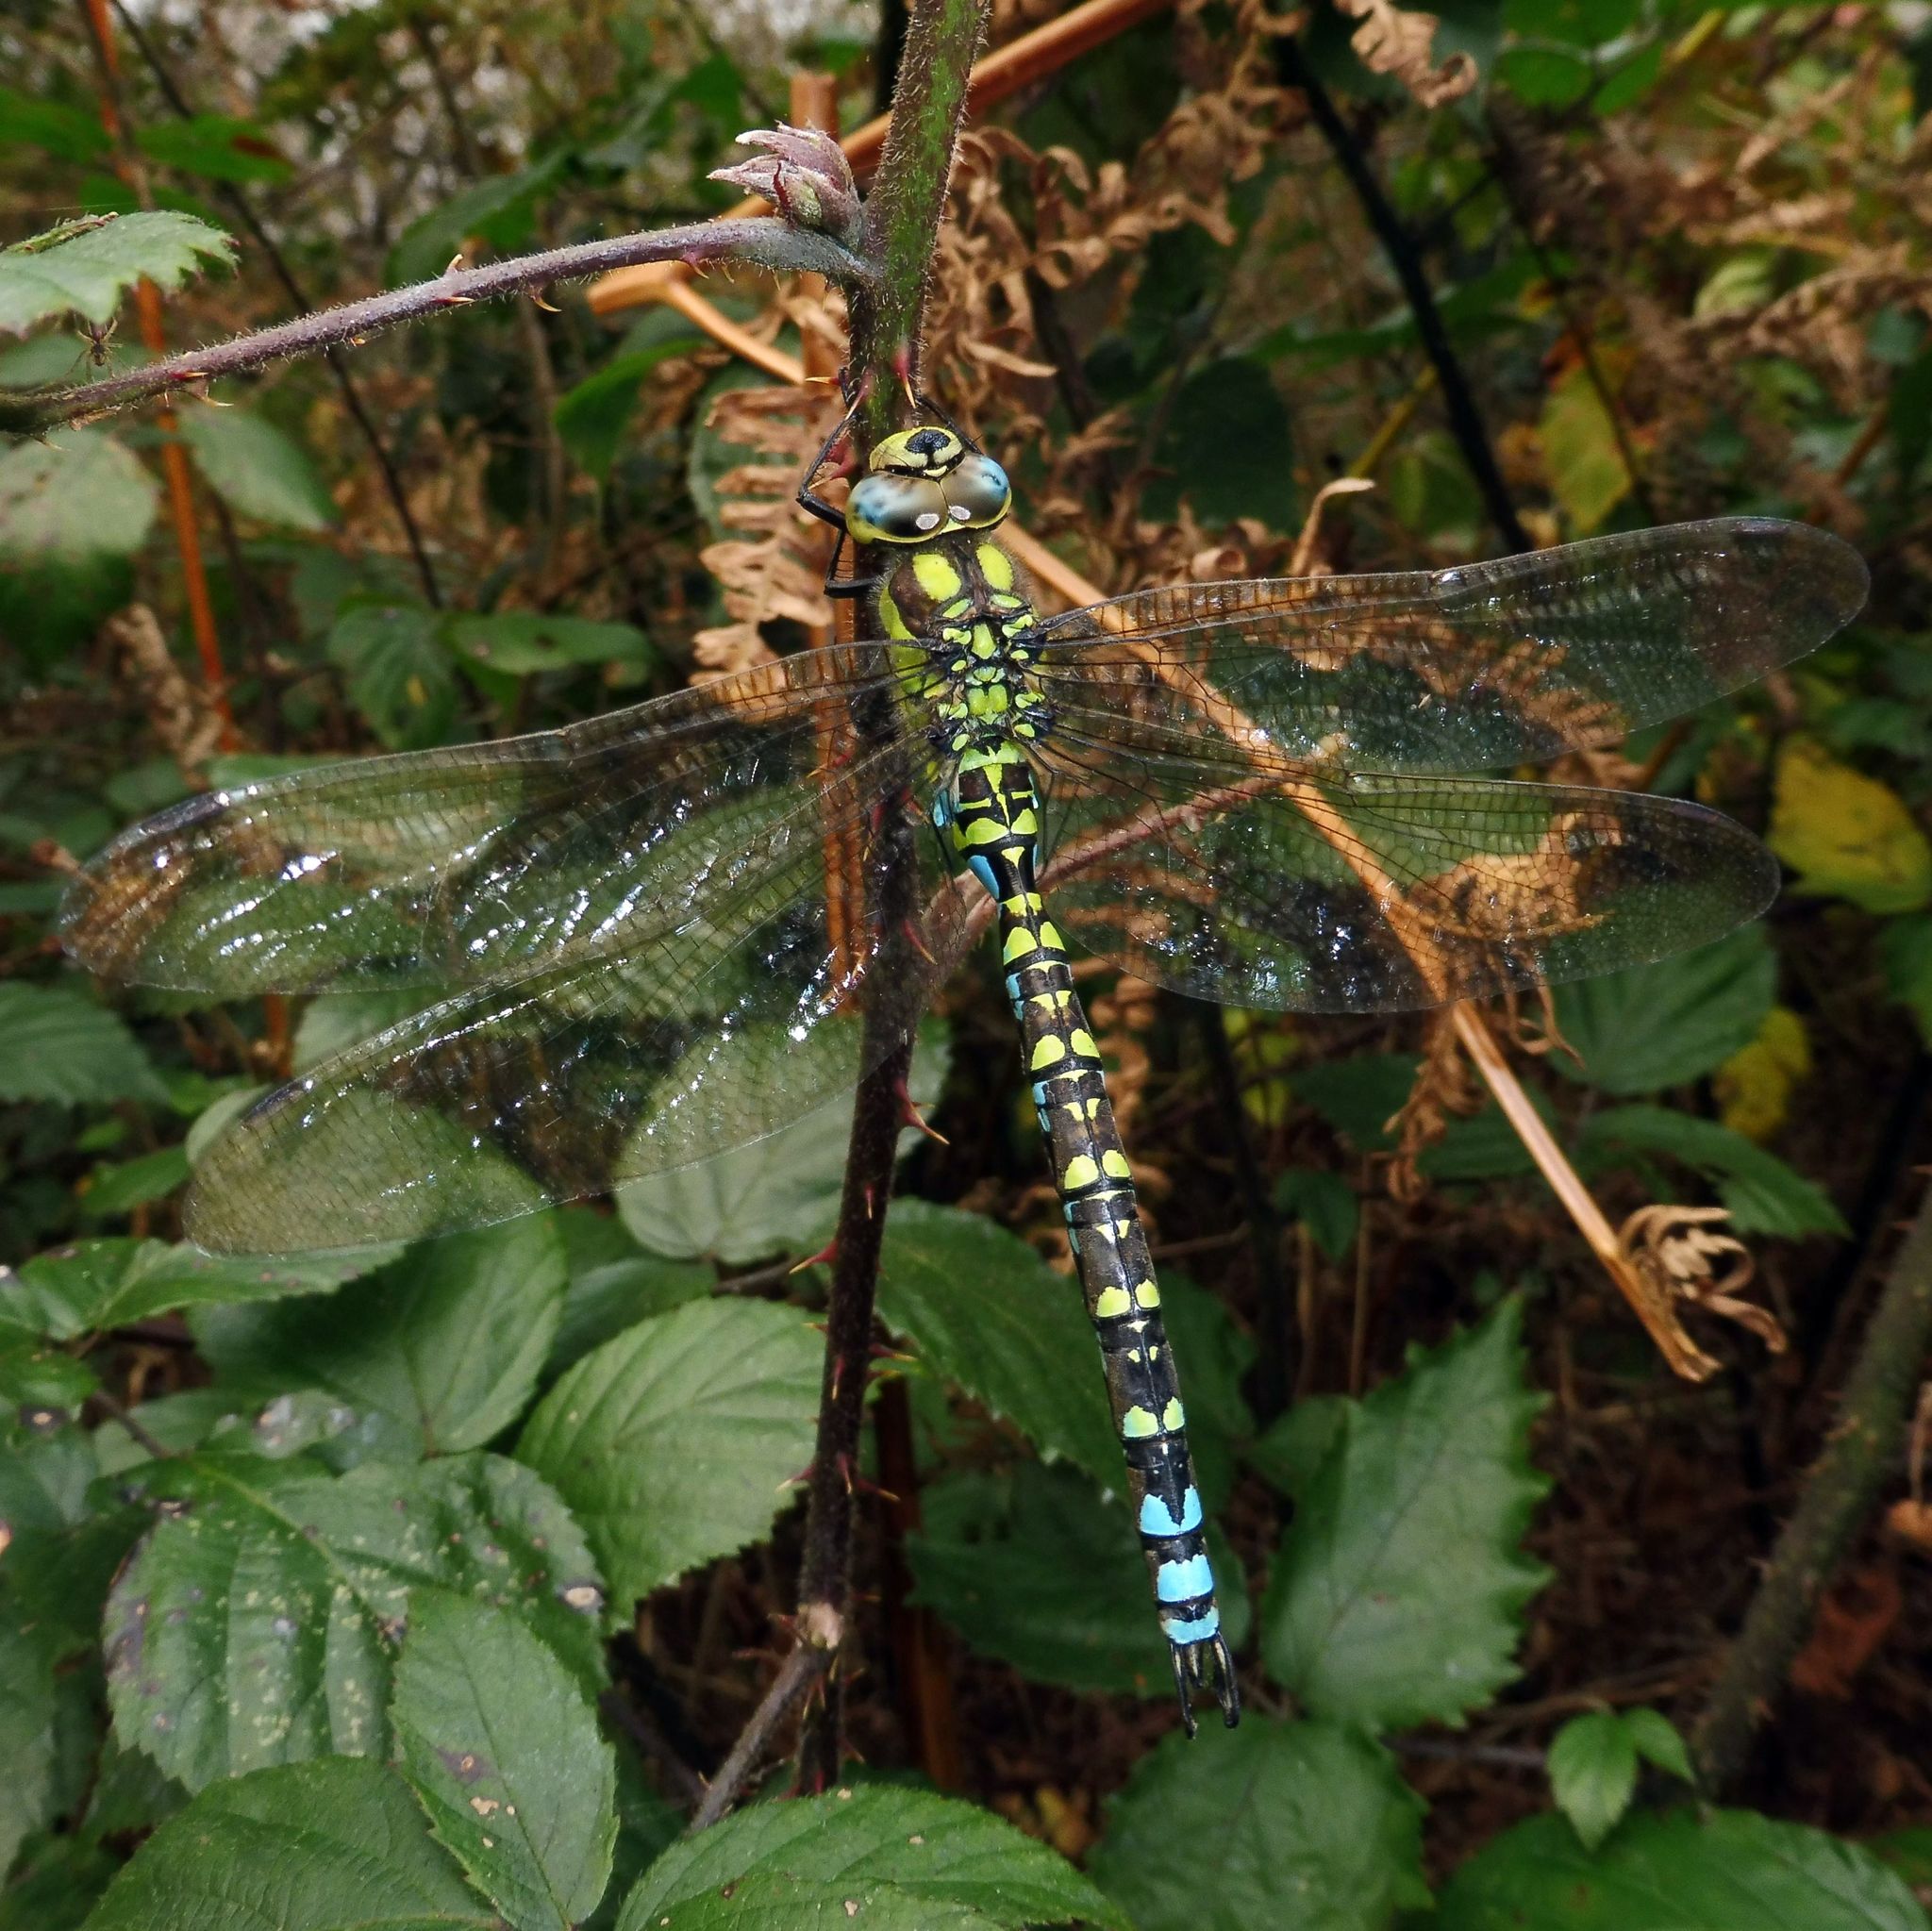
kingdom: Animalia
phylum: Arthropoda
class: Insecta
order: Odonata
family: Aeshnidae
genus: Aeshna
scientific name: Aeshna cyanea
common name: Southern hawker
